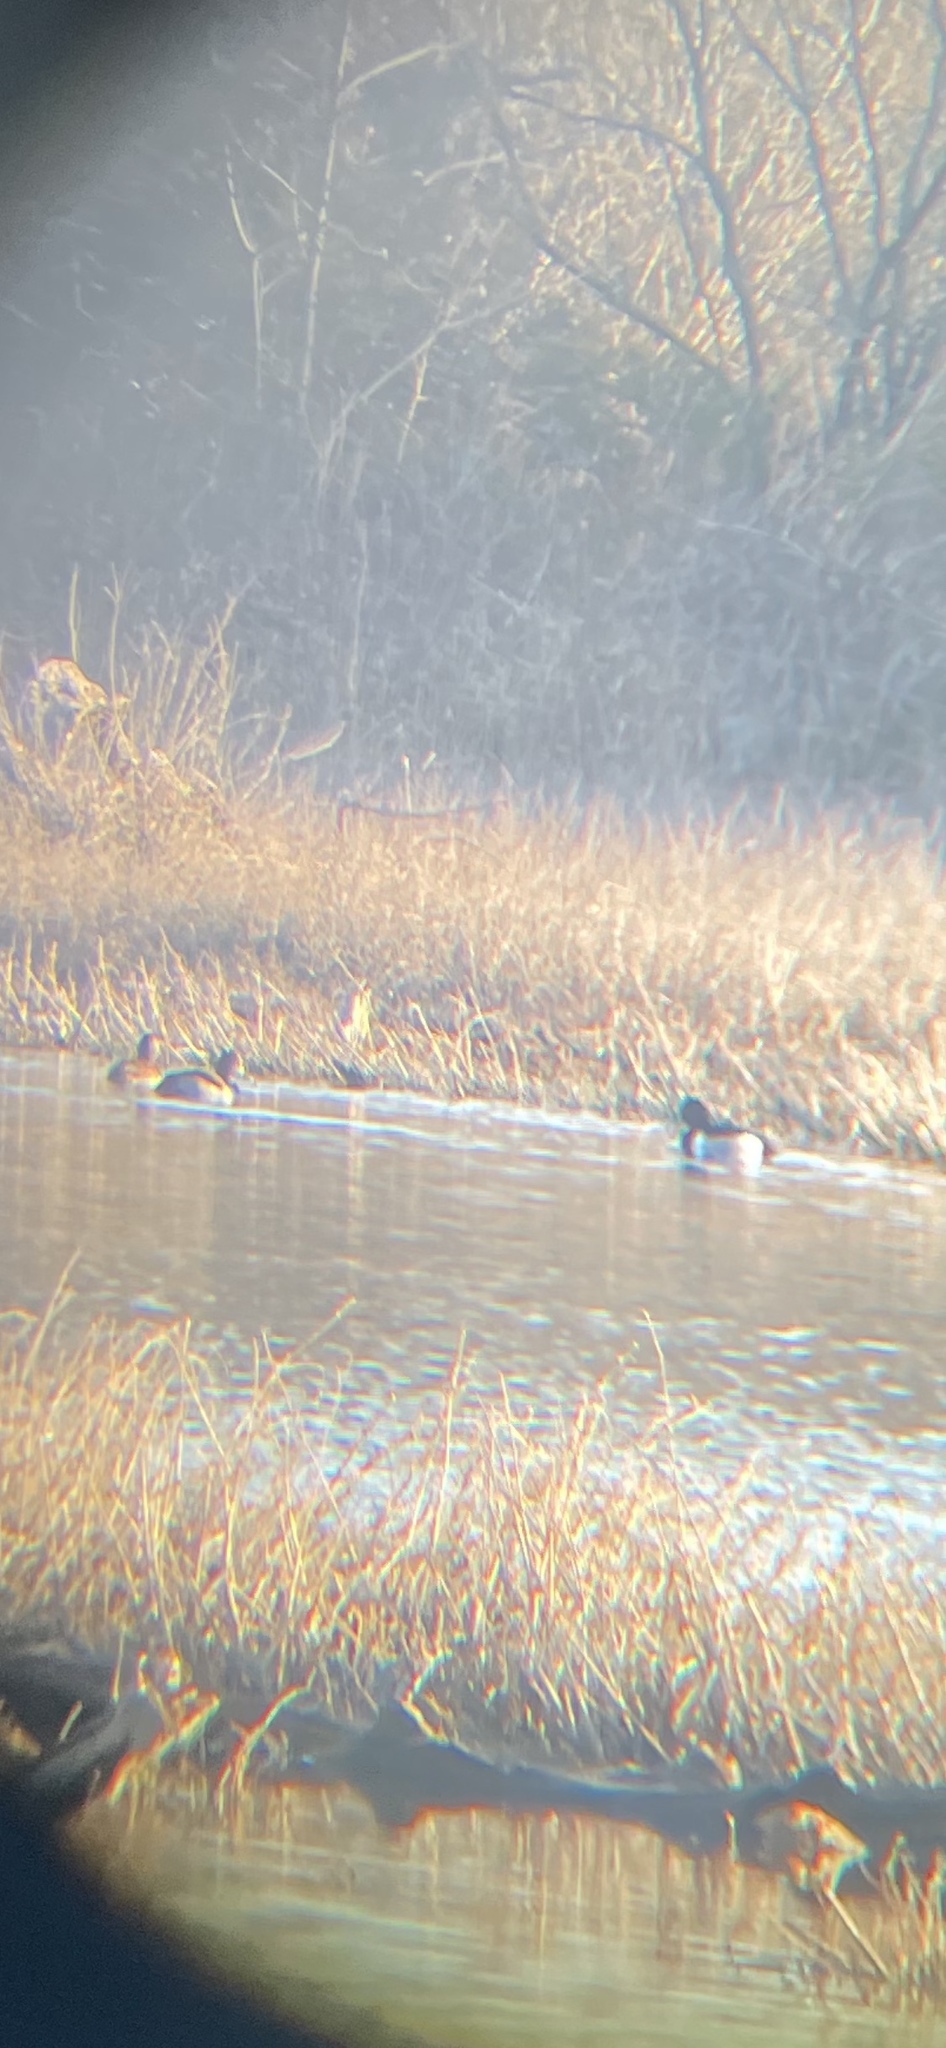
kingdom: Animalia
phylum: Chordata
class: Aves
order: Anseriformes
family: Anatidae
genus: Aythya
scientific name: Aythya collaris
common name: Ring-necked duck
